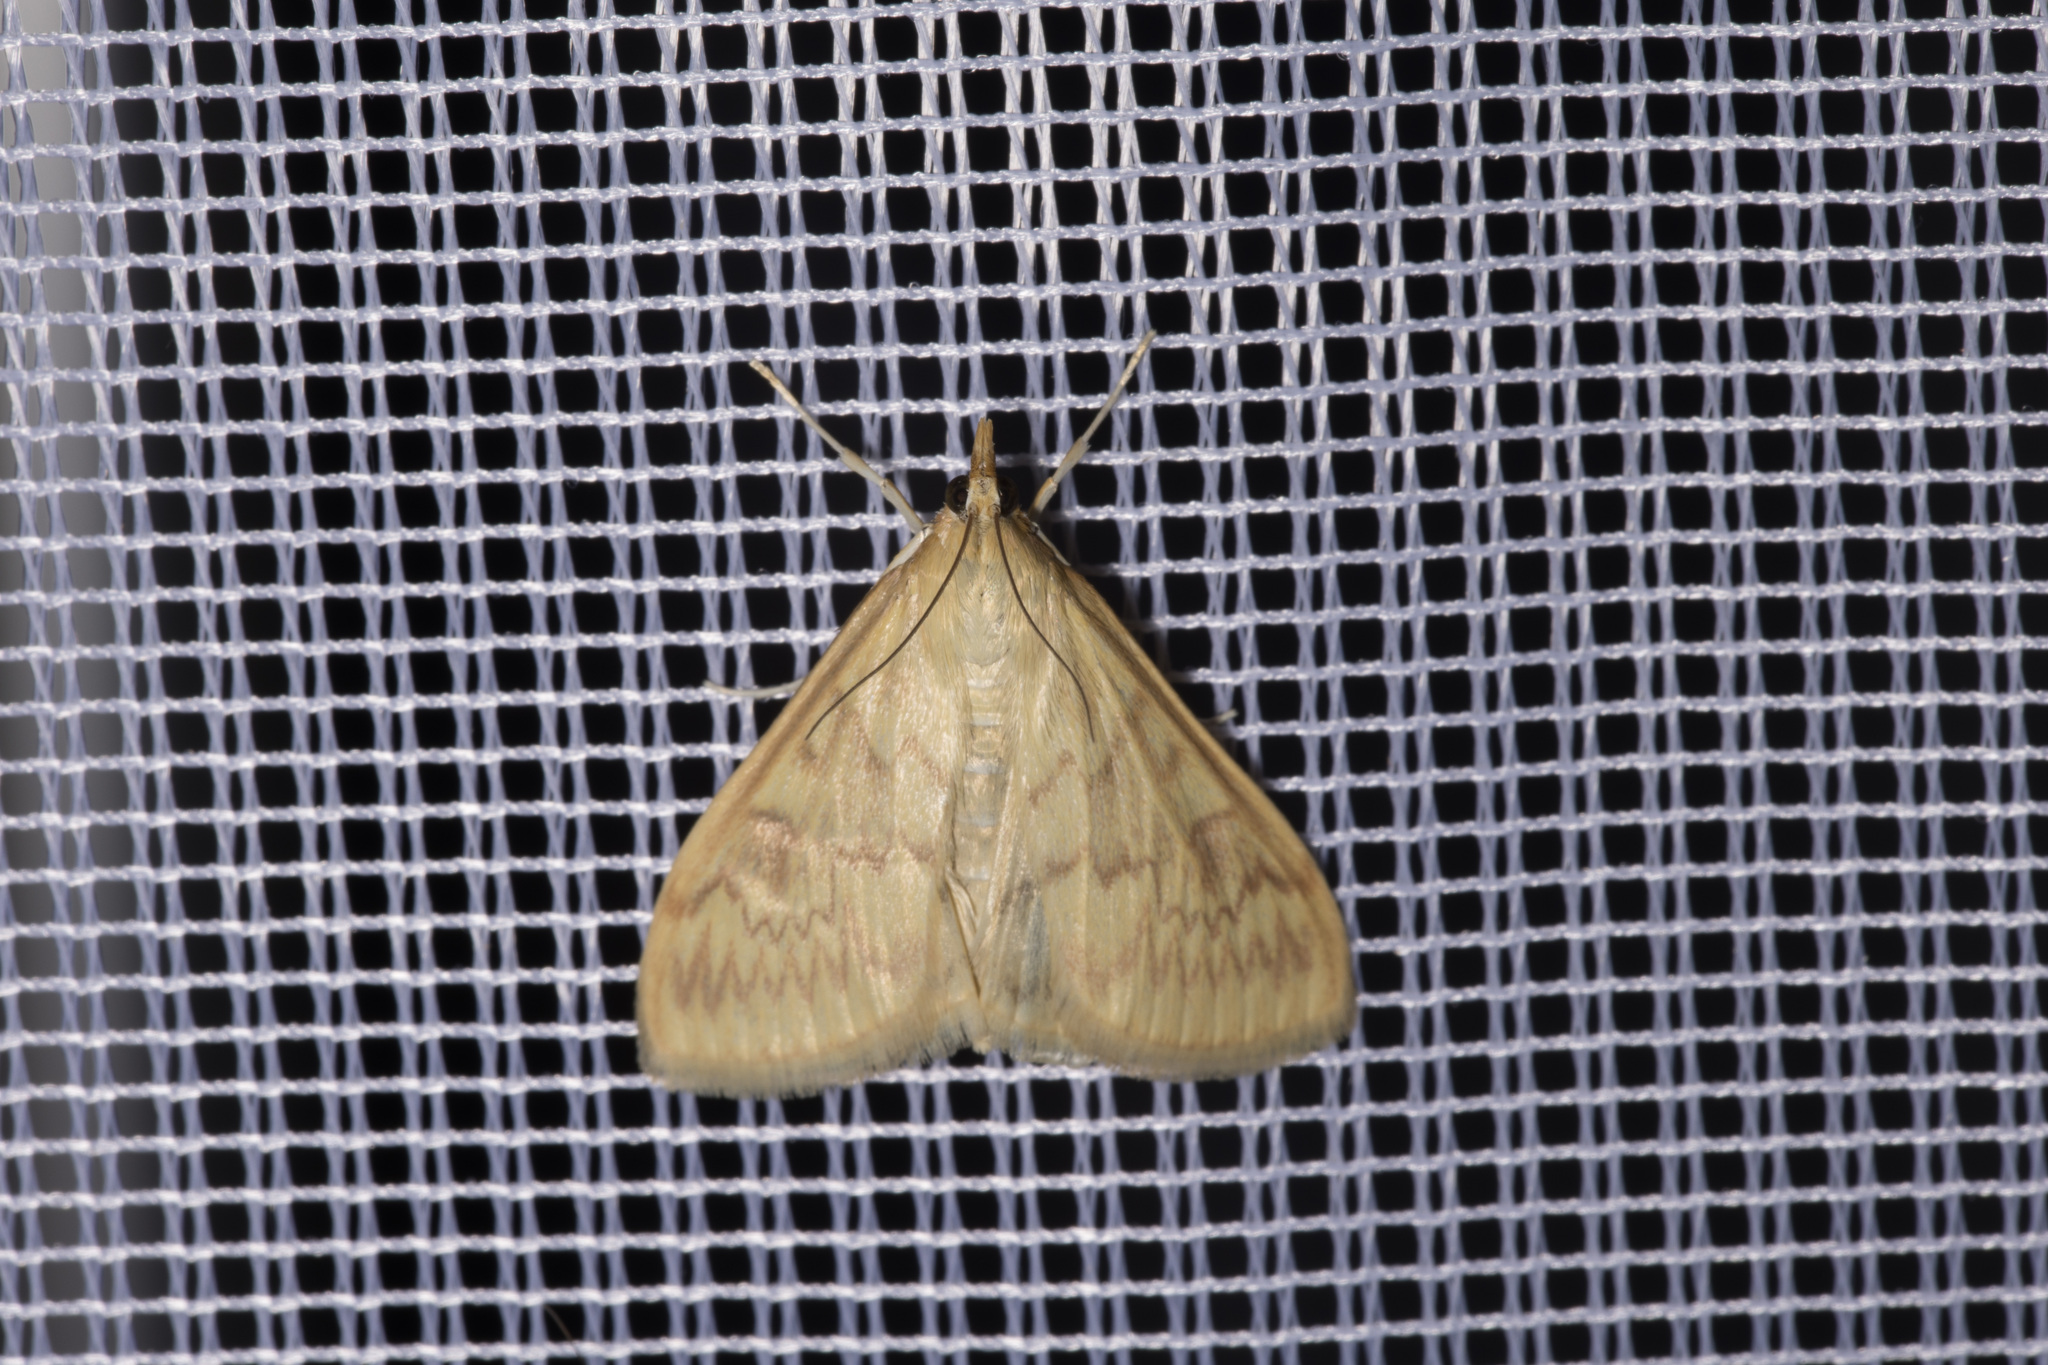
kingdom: Animalia
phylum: Arthropoda
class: Insecta
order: Lepidoptera
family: Crambidae
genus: Ostrinia
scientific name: Ostrinia nubilalis
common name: European corn borer
